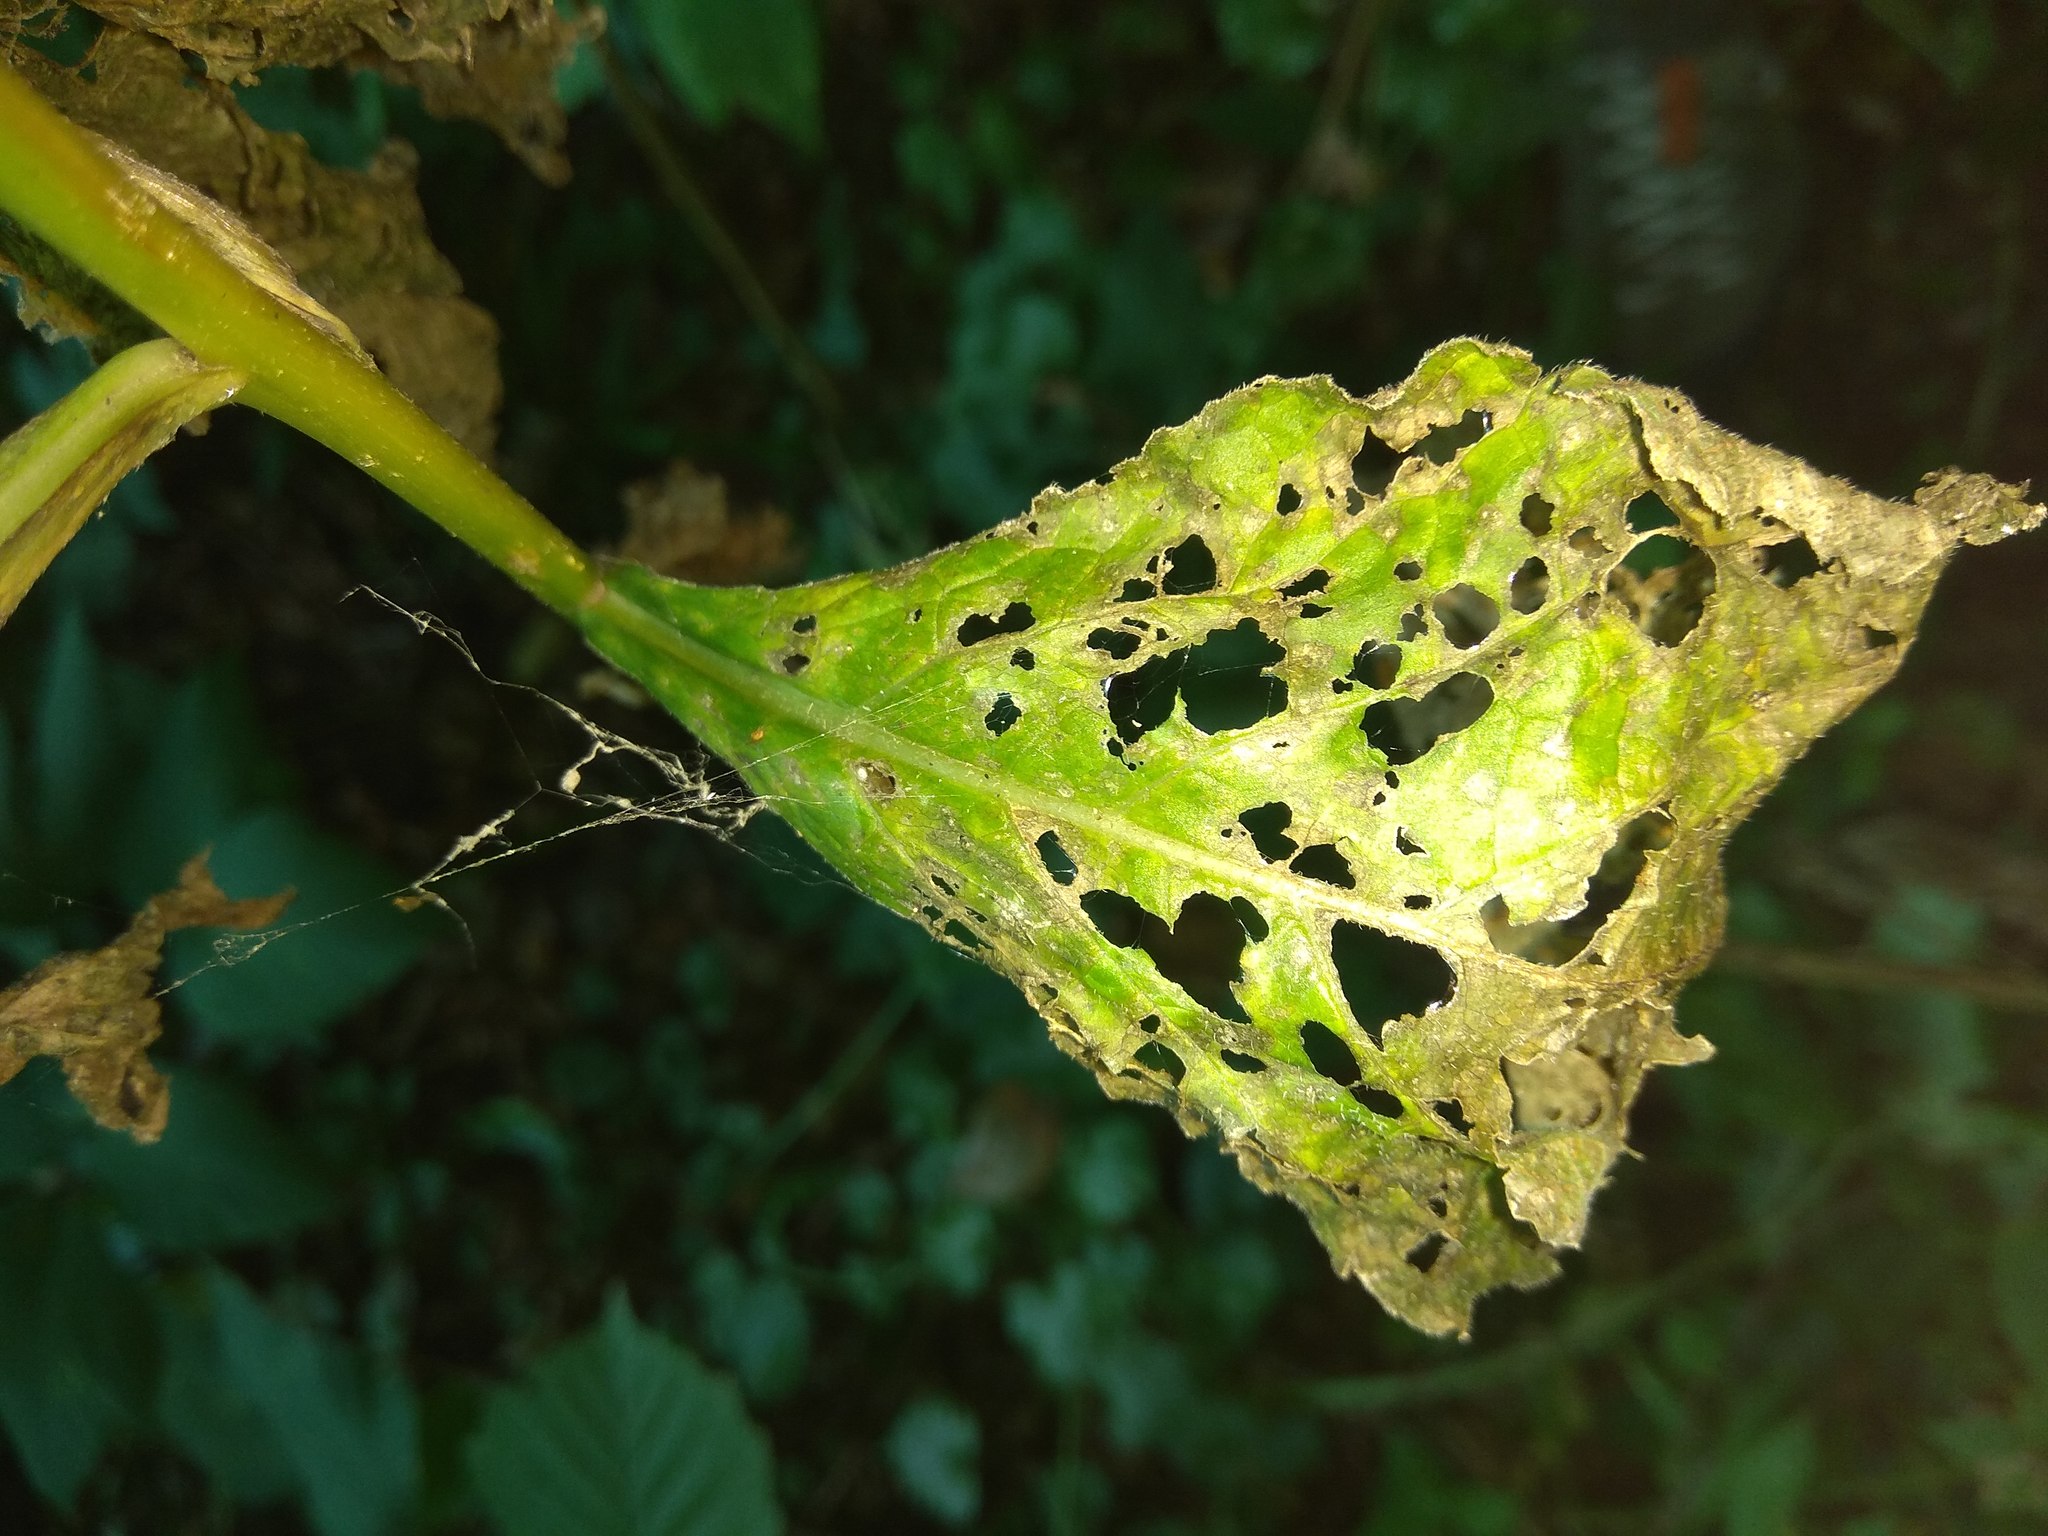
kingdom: Plantae
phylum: Tracheophyta
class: Magnoliopsida
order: Asterales
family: Campanulaceae
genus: Campanula
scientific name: Campanula latifolia
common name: Giant bellflower
